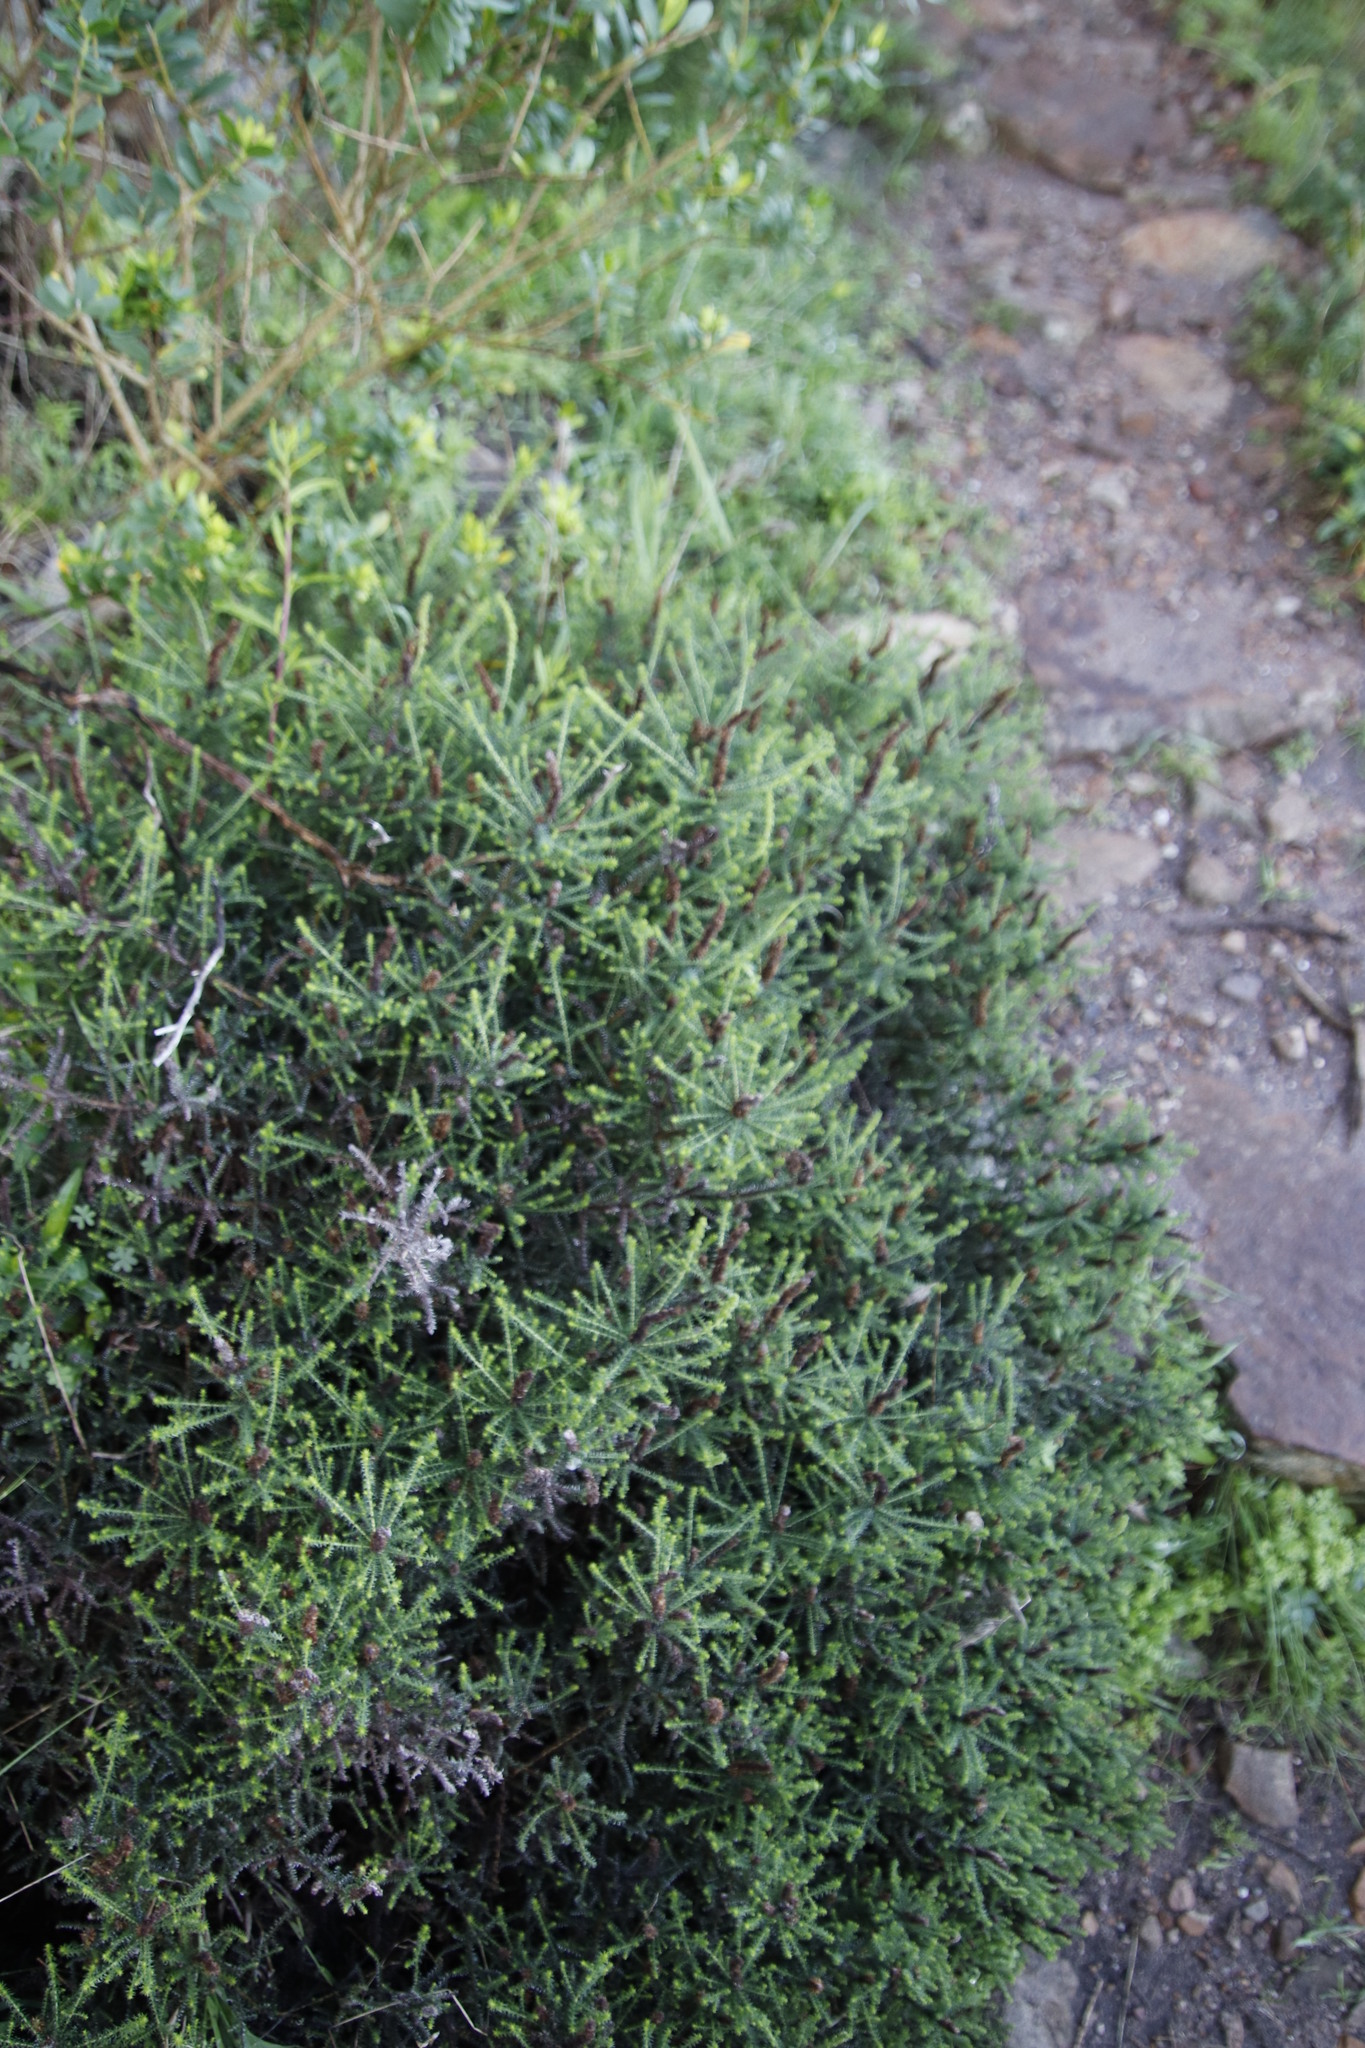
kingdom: Plantae
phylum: Tracheophyta
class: Magnoliopsida
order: Asterales
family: Asteraceae
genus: Seriphium
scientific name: Seriphium cinereum
